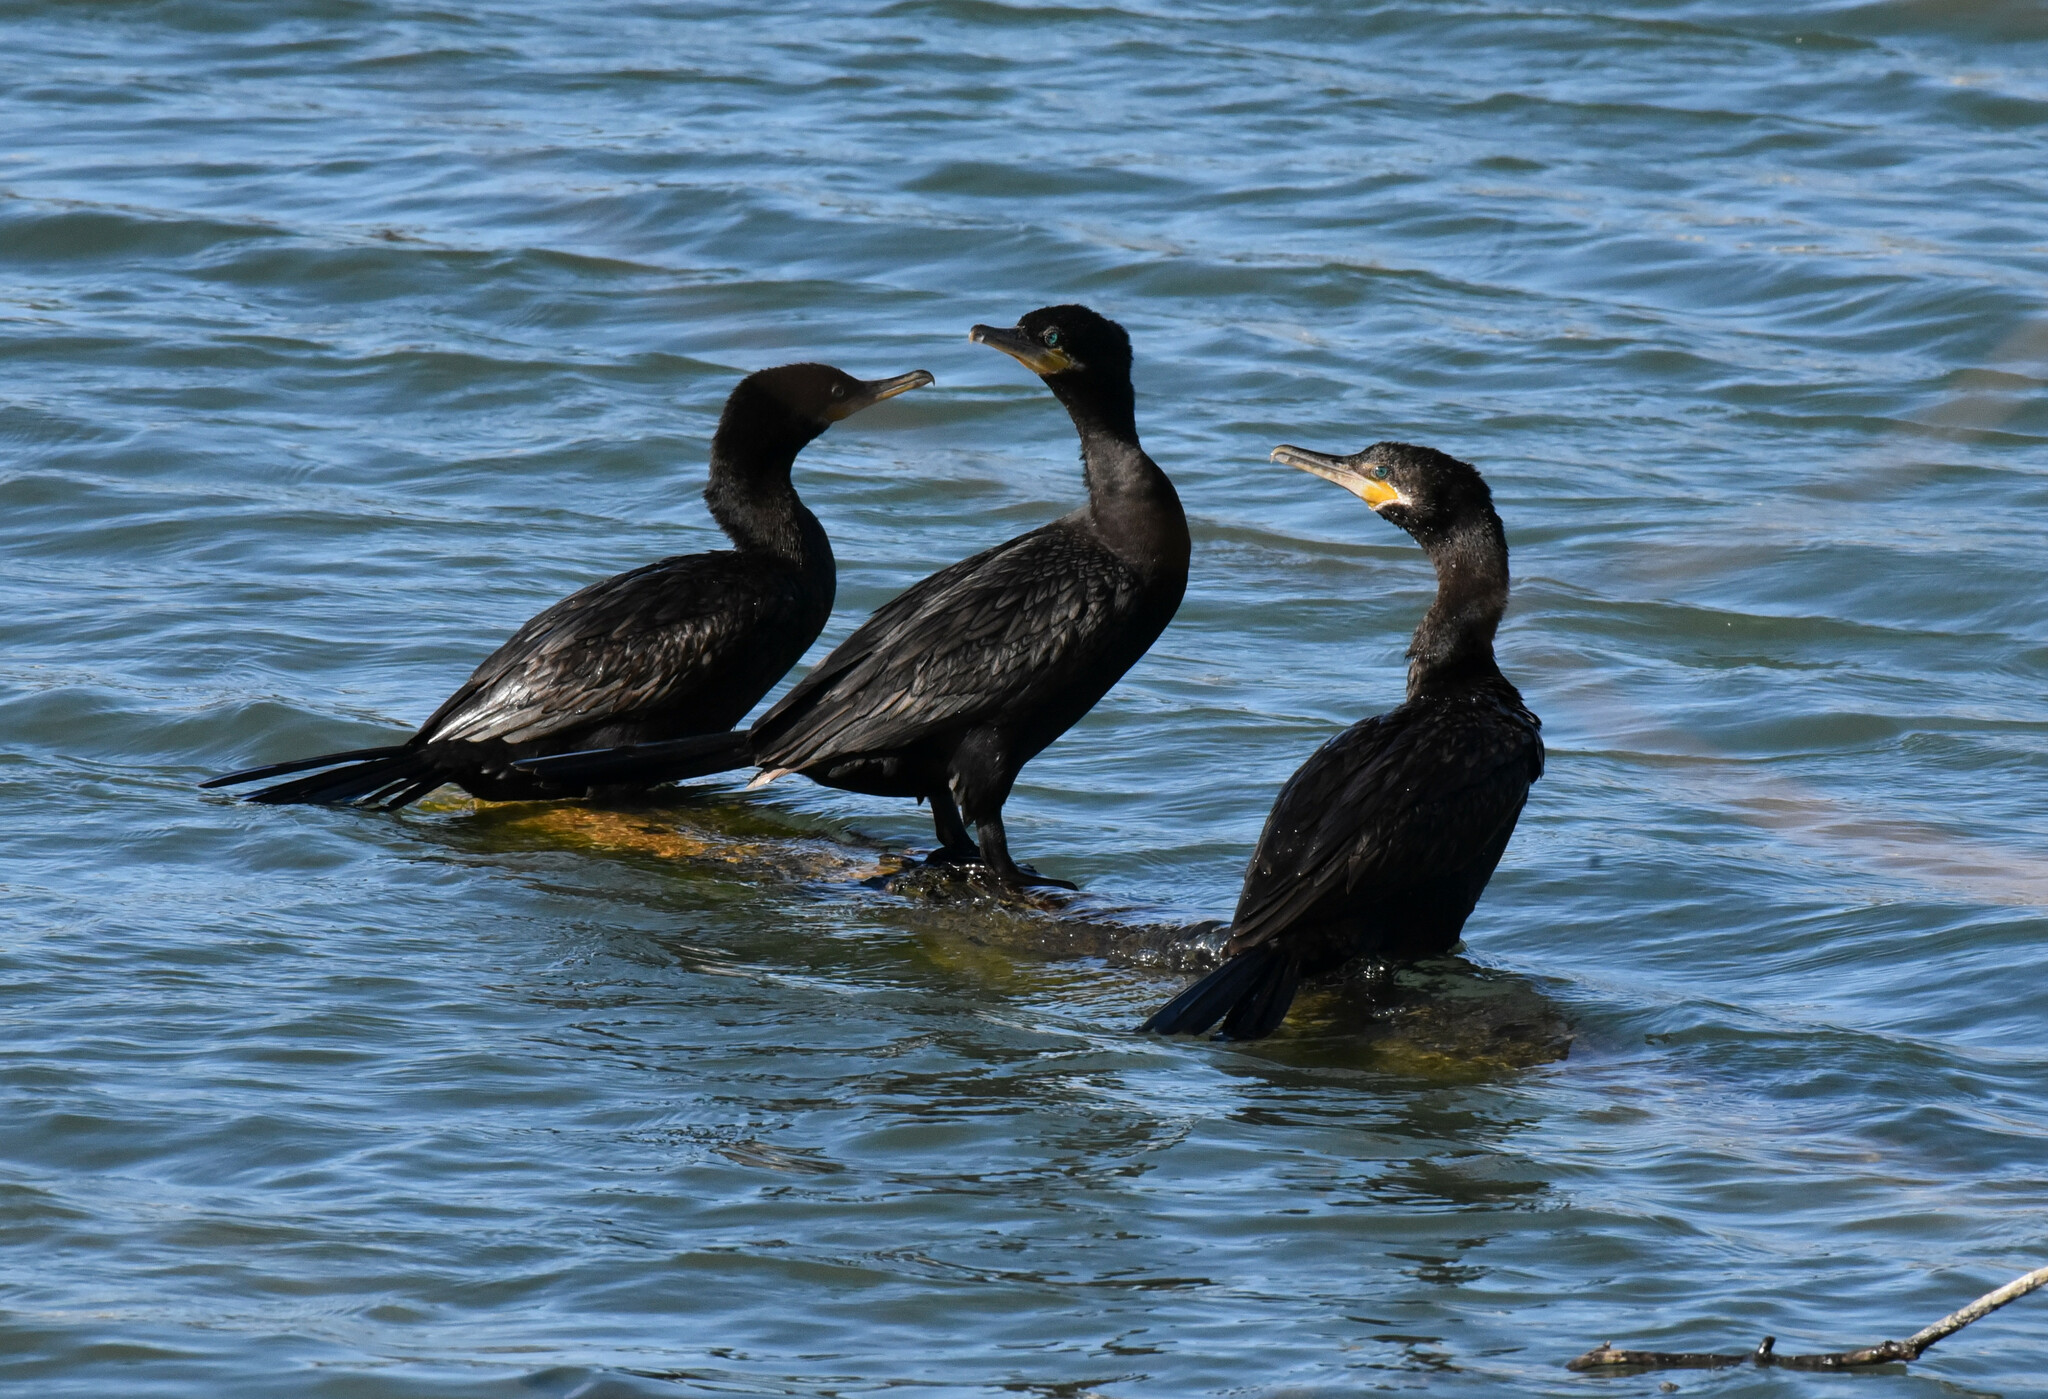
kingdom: Animalia
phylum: Chordata
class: Aves
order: Suliformes
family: Phalacrocoracidae
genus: Phalacrocorax
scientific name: Phalacrocorax brasilianus
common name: Neotropic cormorant
